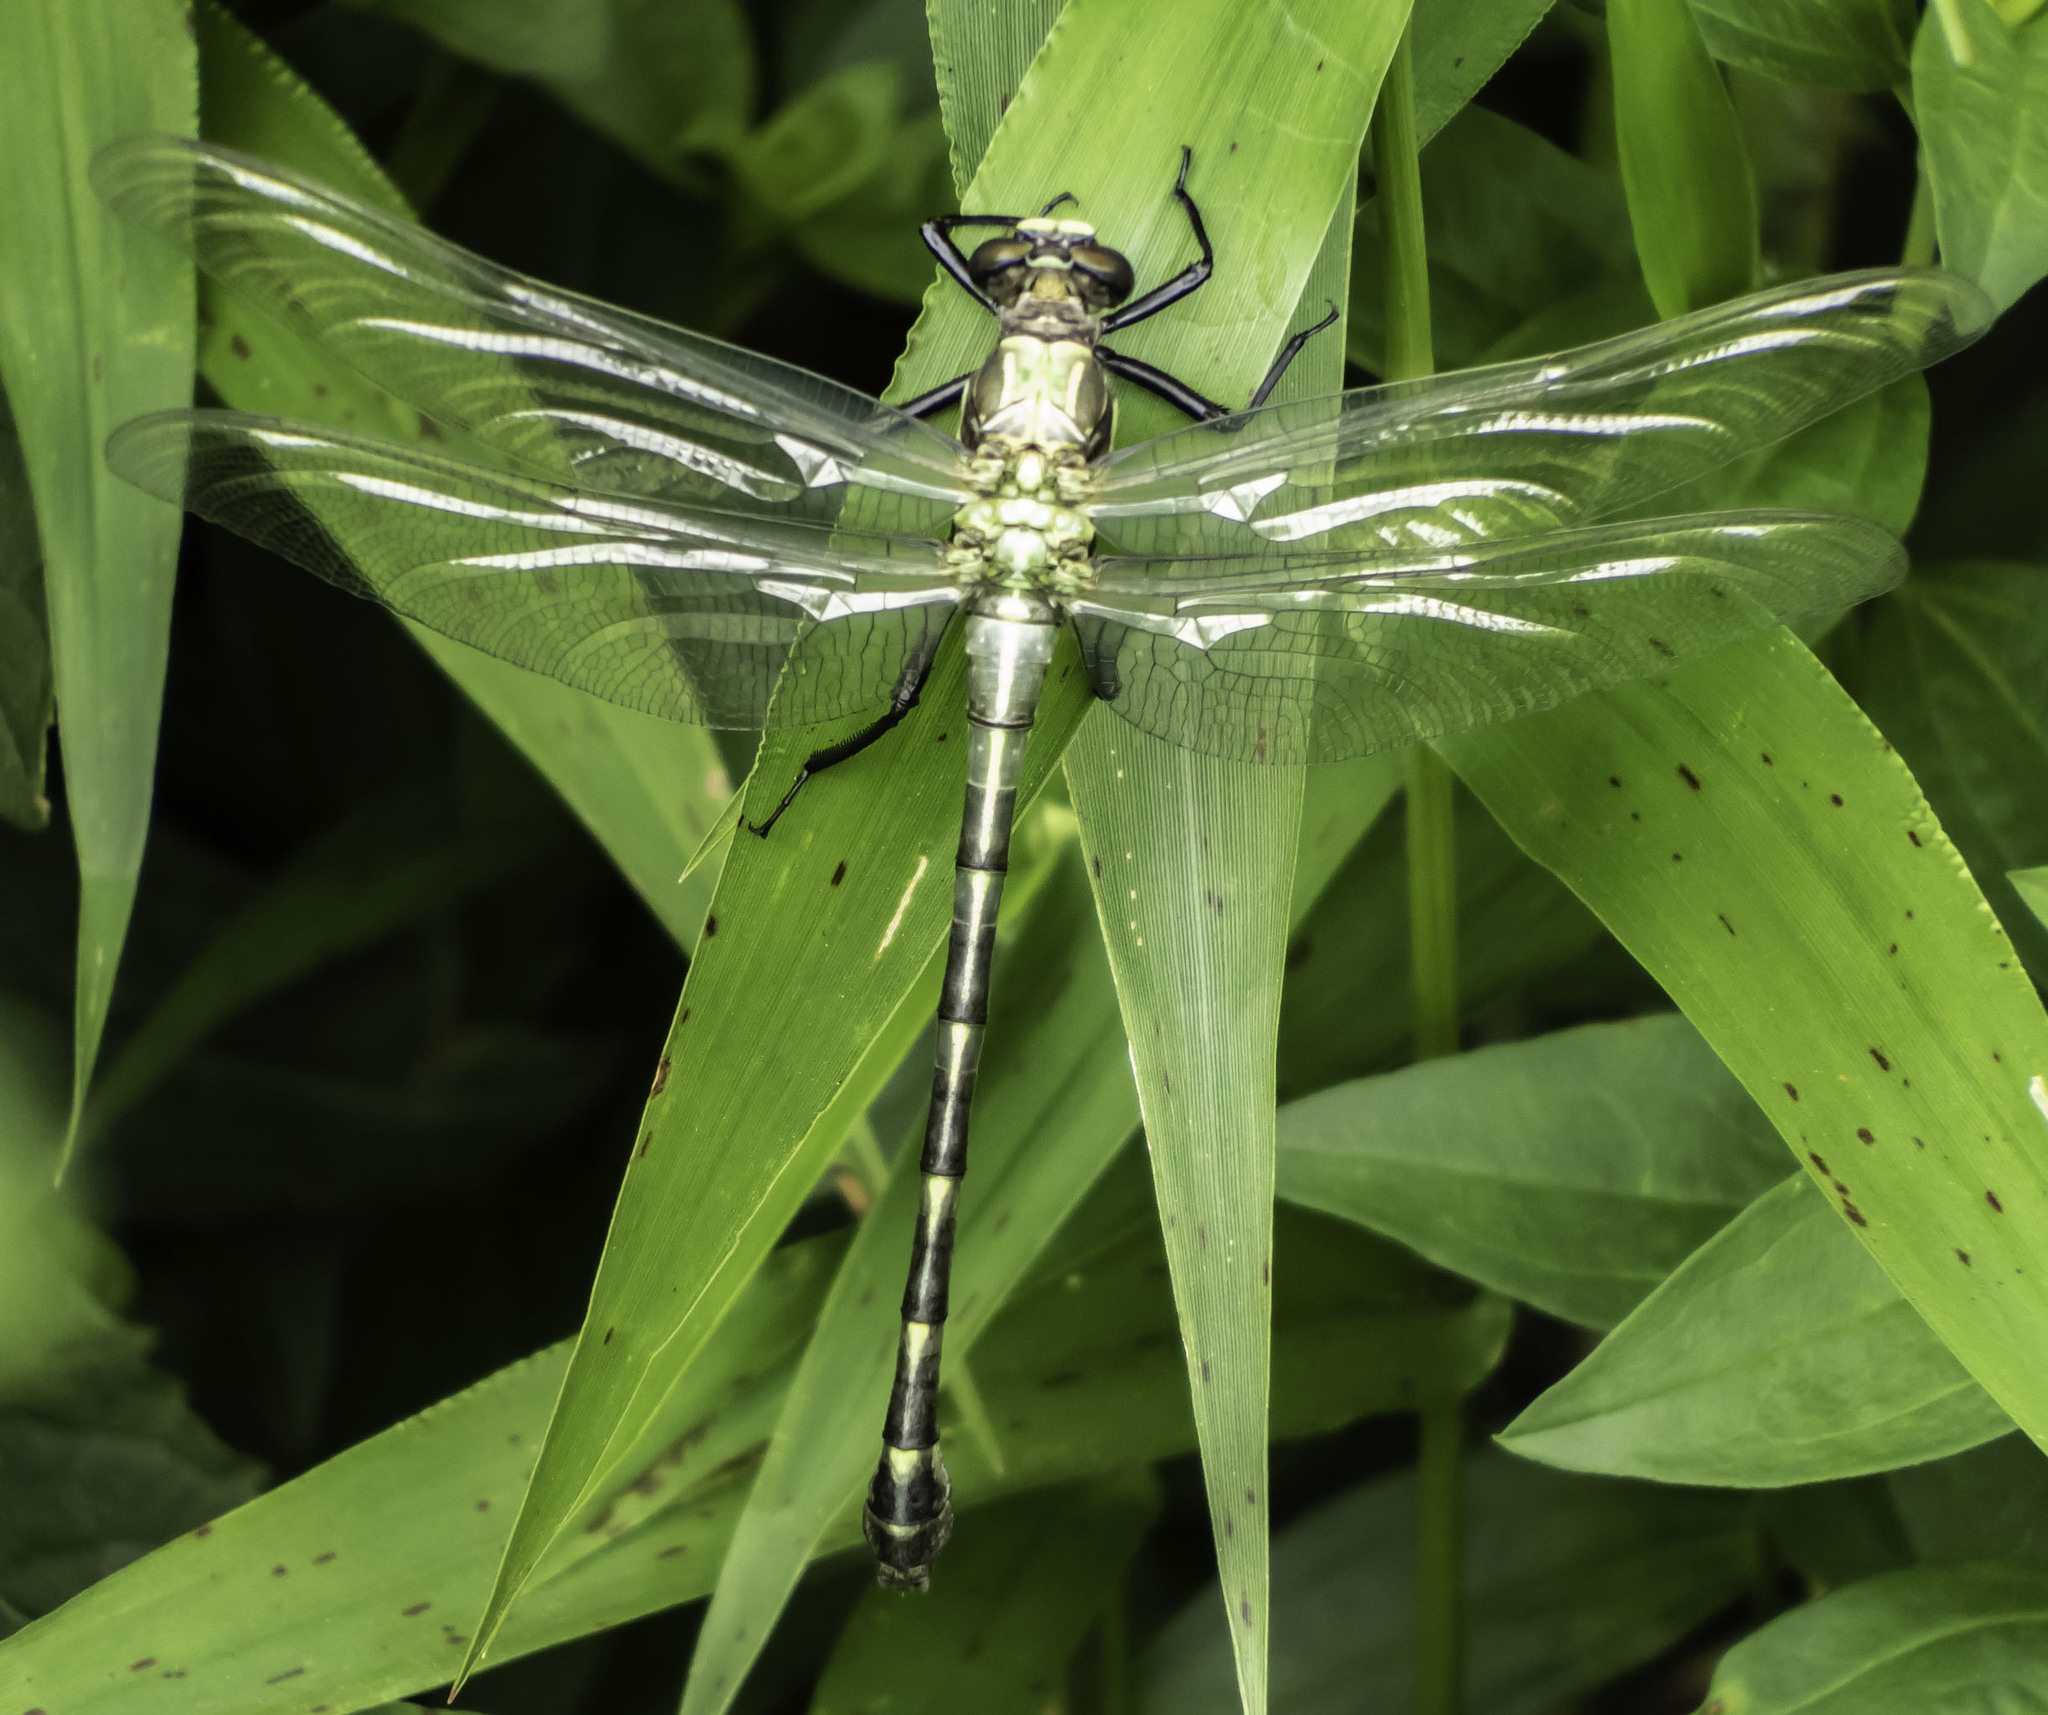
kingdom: Animalia
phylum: Arthropoda
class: Insecta
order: Odonata
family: Gomphidae
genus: Dromogomphus
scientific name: Dromogomphus spinosus
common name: Black-shouldered spinyleg
